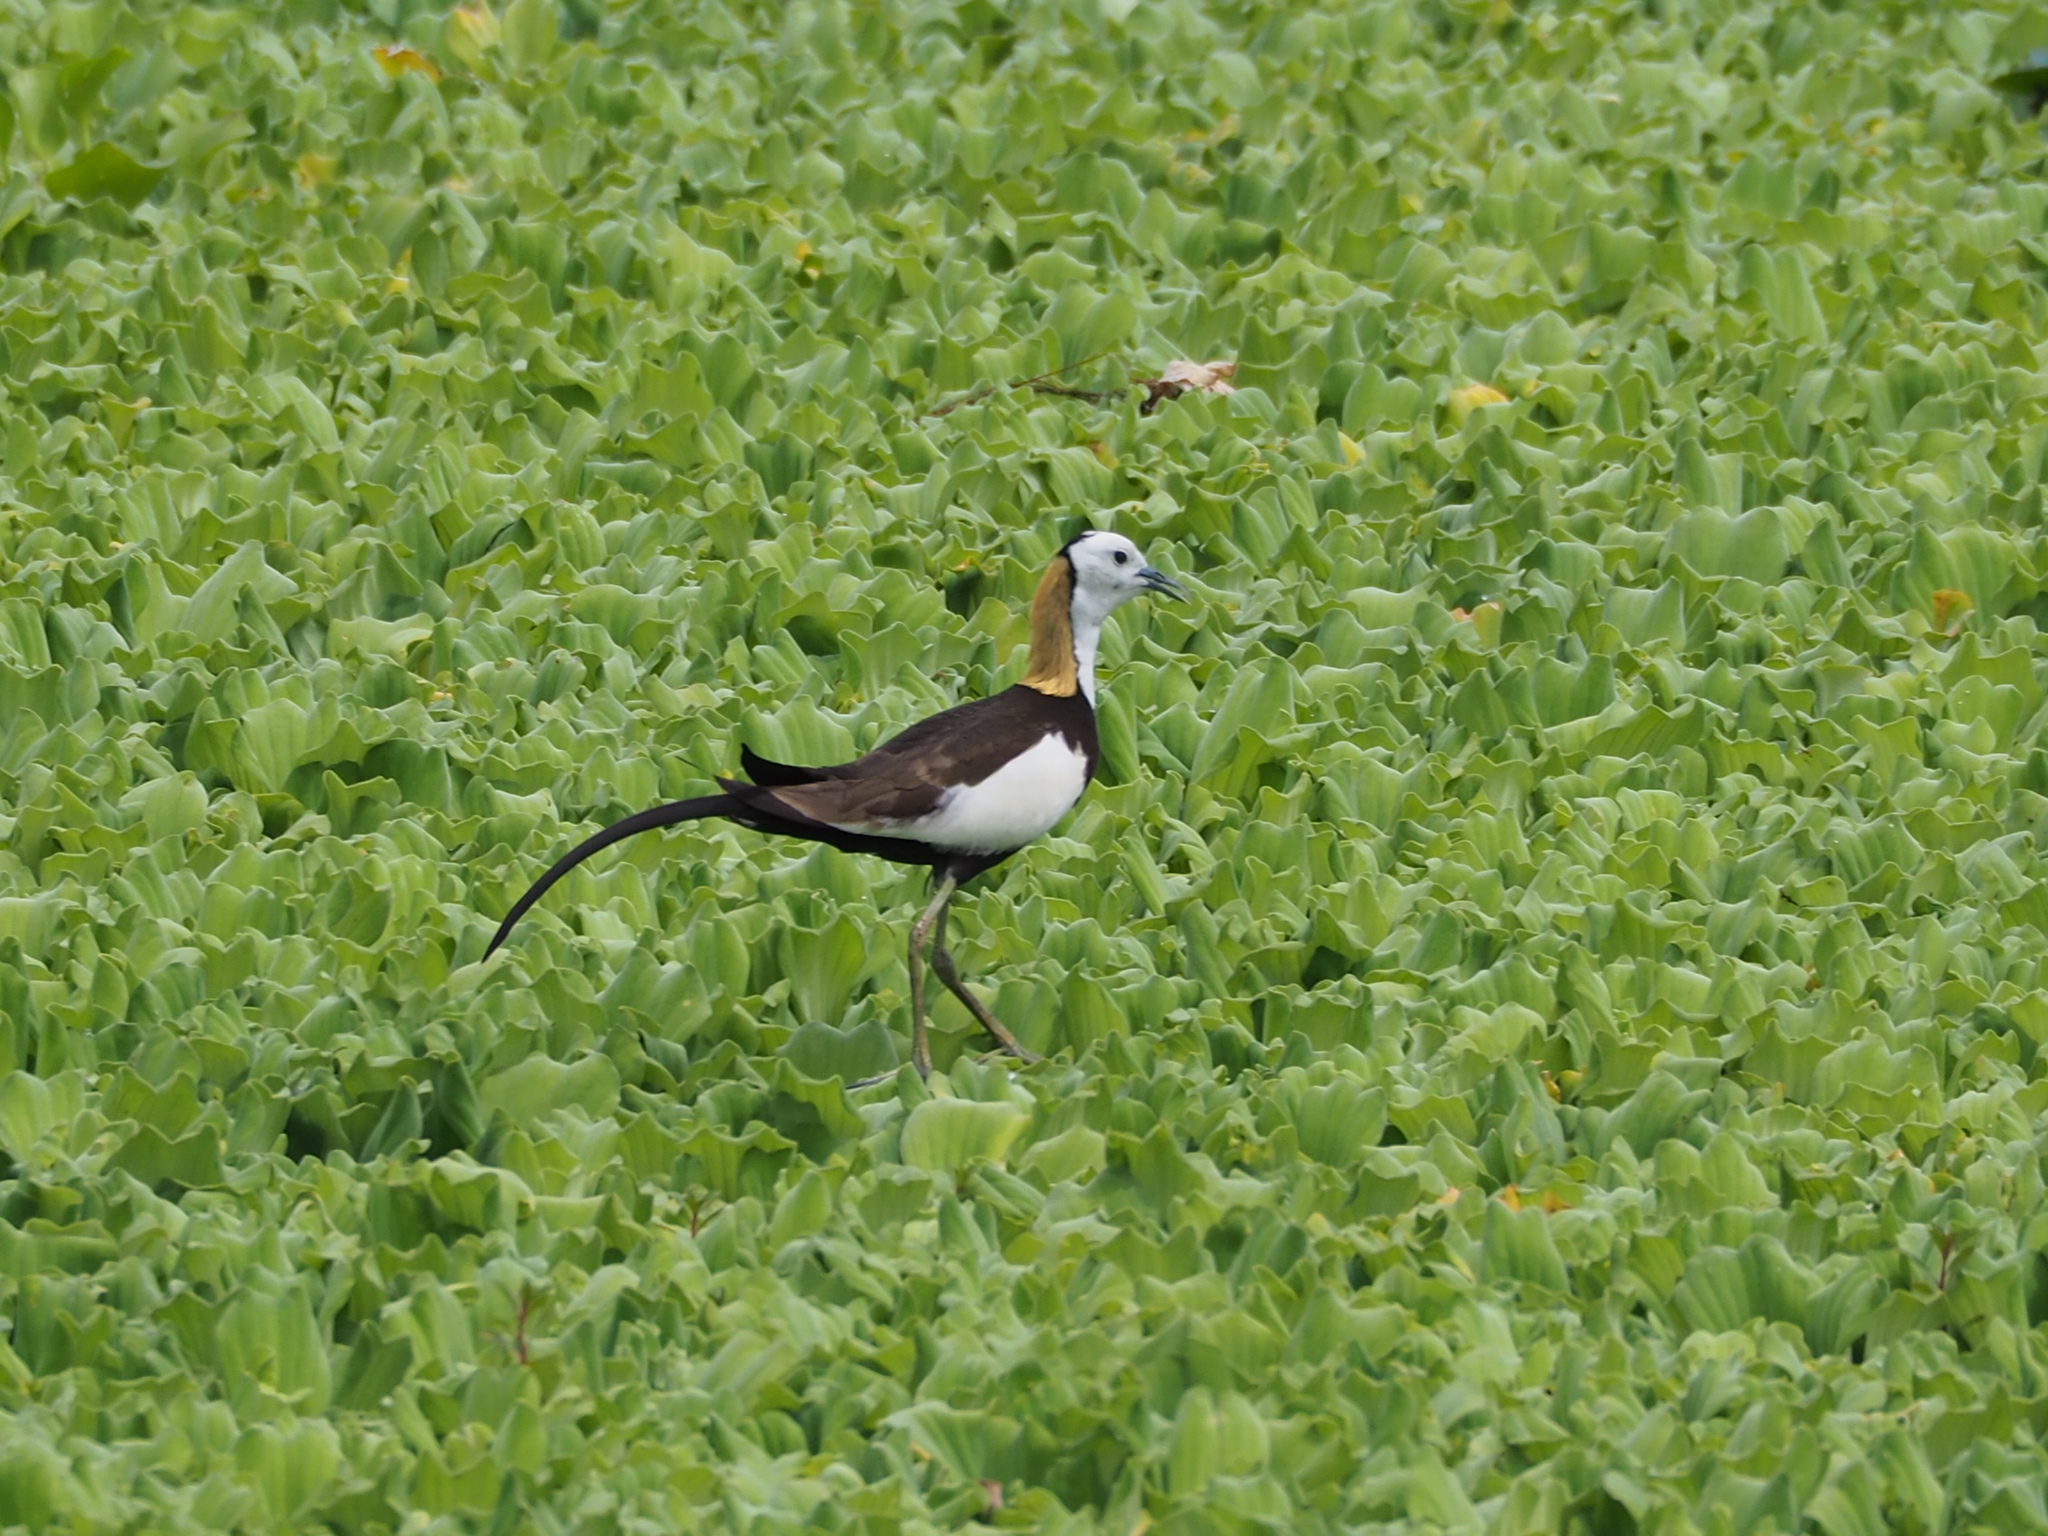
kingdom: Animalia
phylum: Chordata
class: Aves
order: Charadriiformes
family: Jacanidae
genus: Hydrophasianus
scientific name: Hydrophasianus chirurgus
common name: Pheasant-tailed jacana
